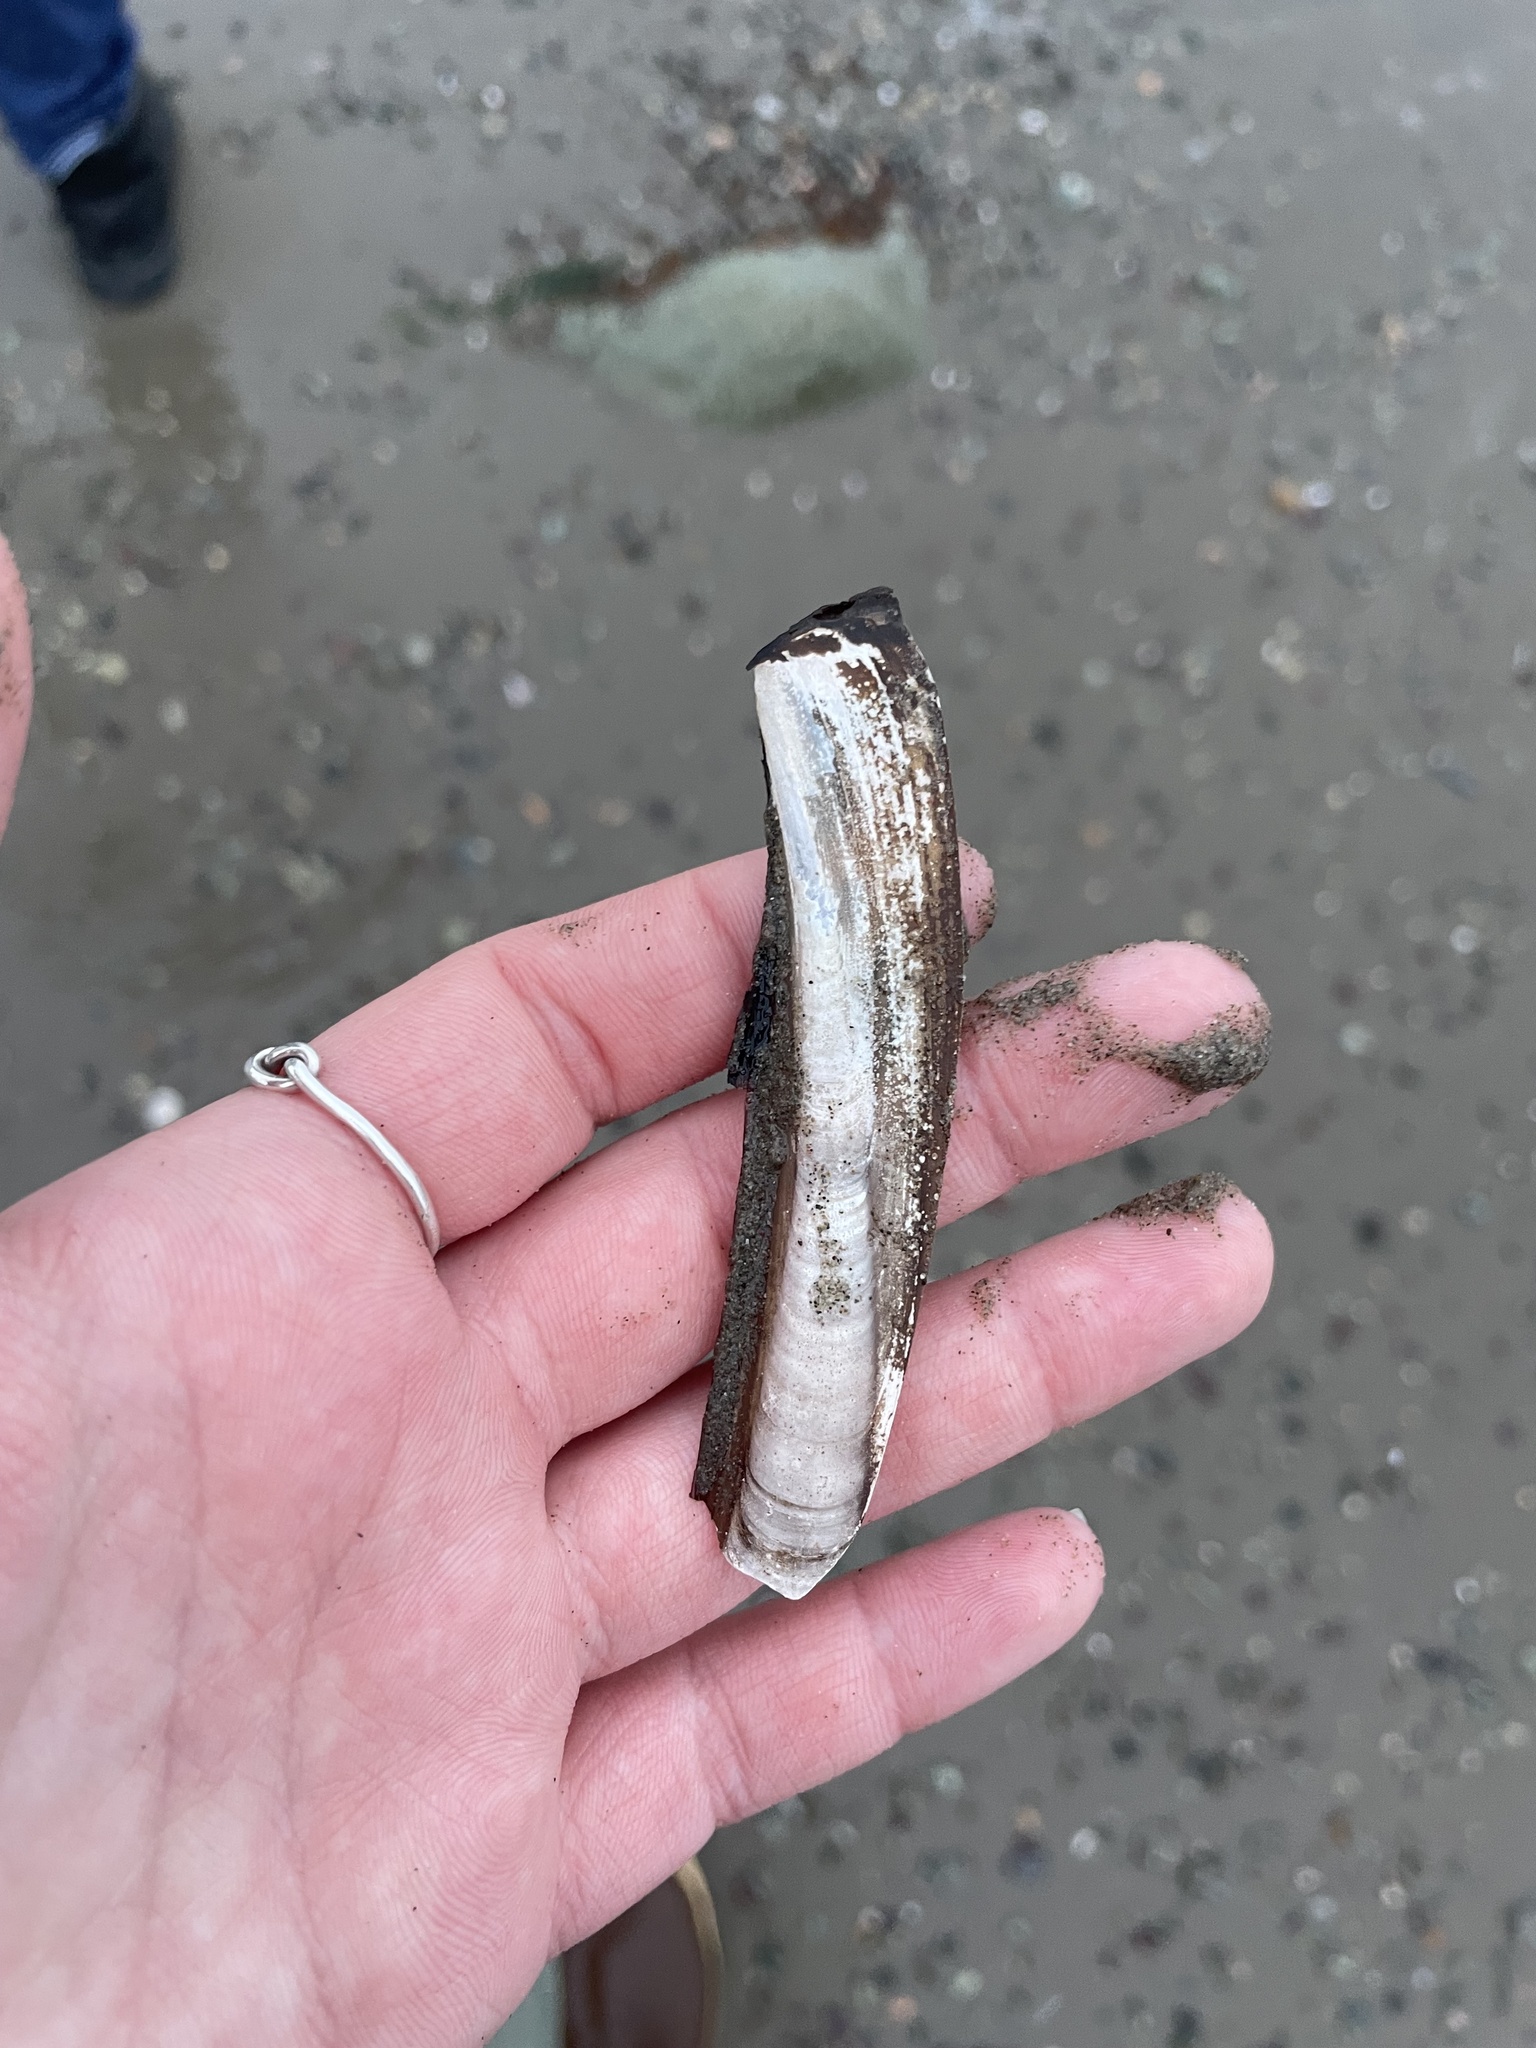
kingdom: Animalia
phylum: Mollusca
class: Bivalvia
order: Adapedonta
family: Pharidae
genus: Ensis
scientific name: Ensis leei
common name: American jack knife clam
